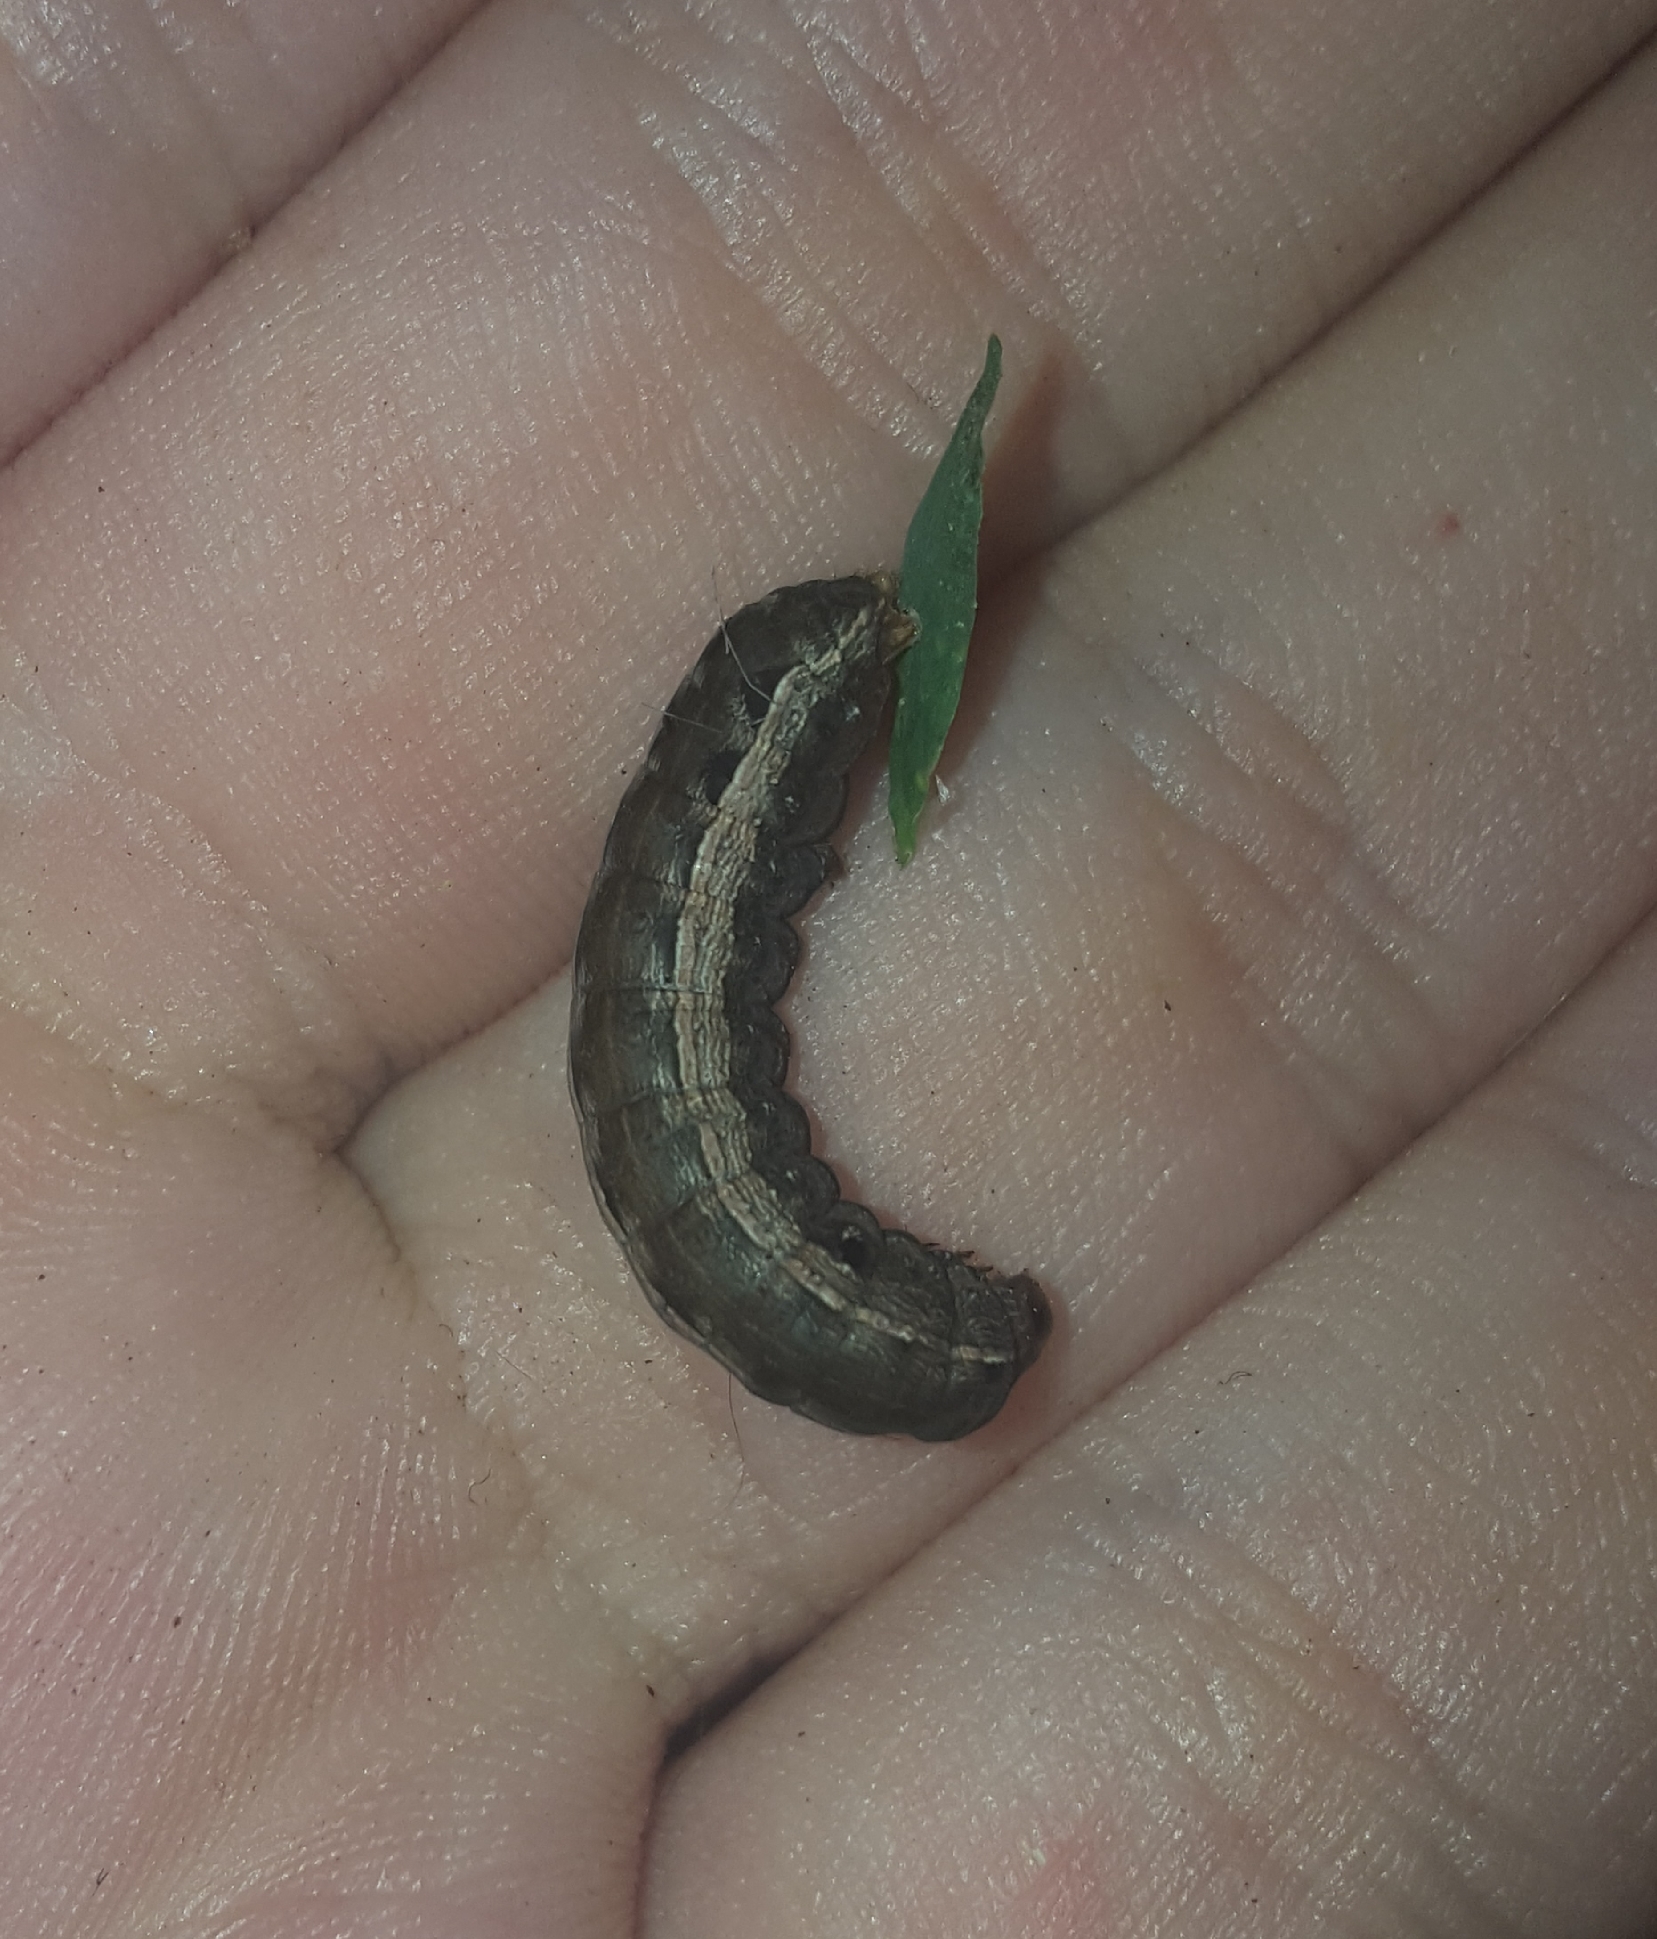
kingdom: Animalia
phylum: Arthropoda
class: Insecta
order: Lepidoptera
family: Noctuidae
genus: Spodoptera
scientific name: Spodoptera ornithogalli
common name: Yellow-striped armyworm
